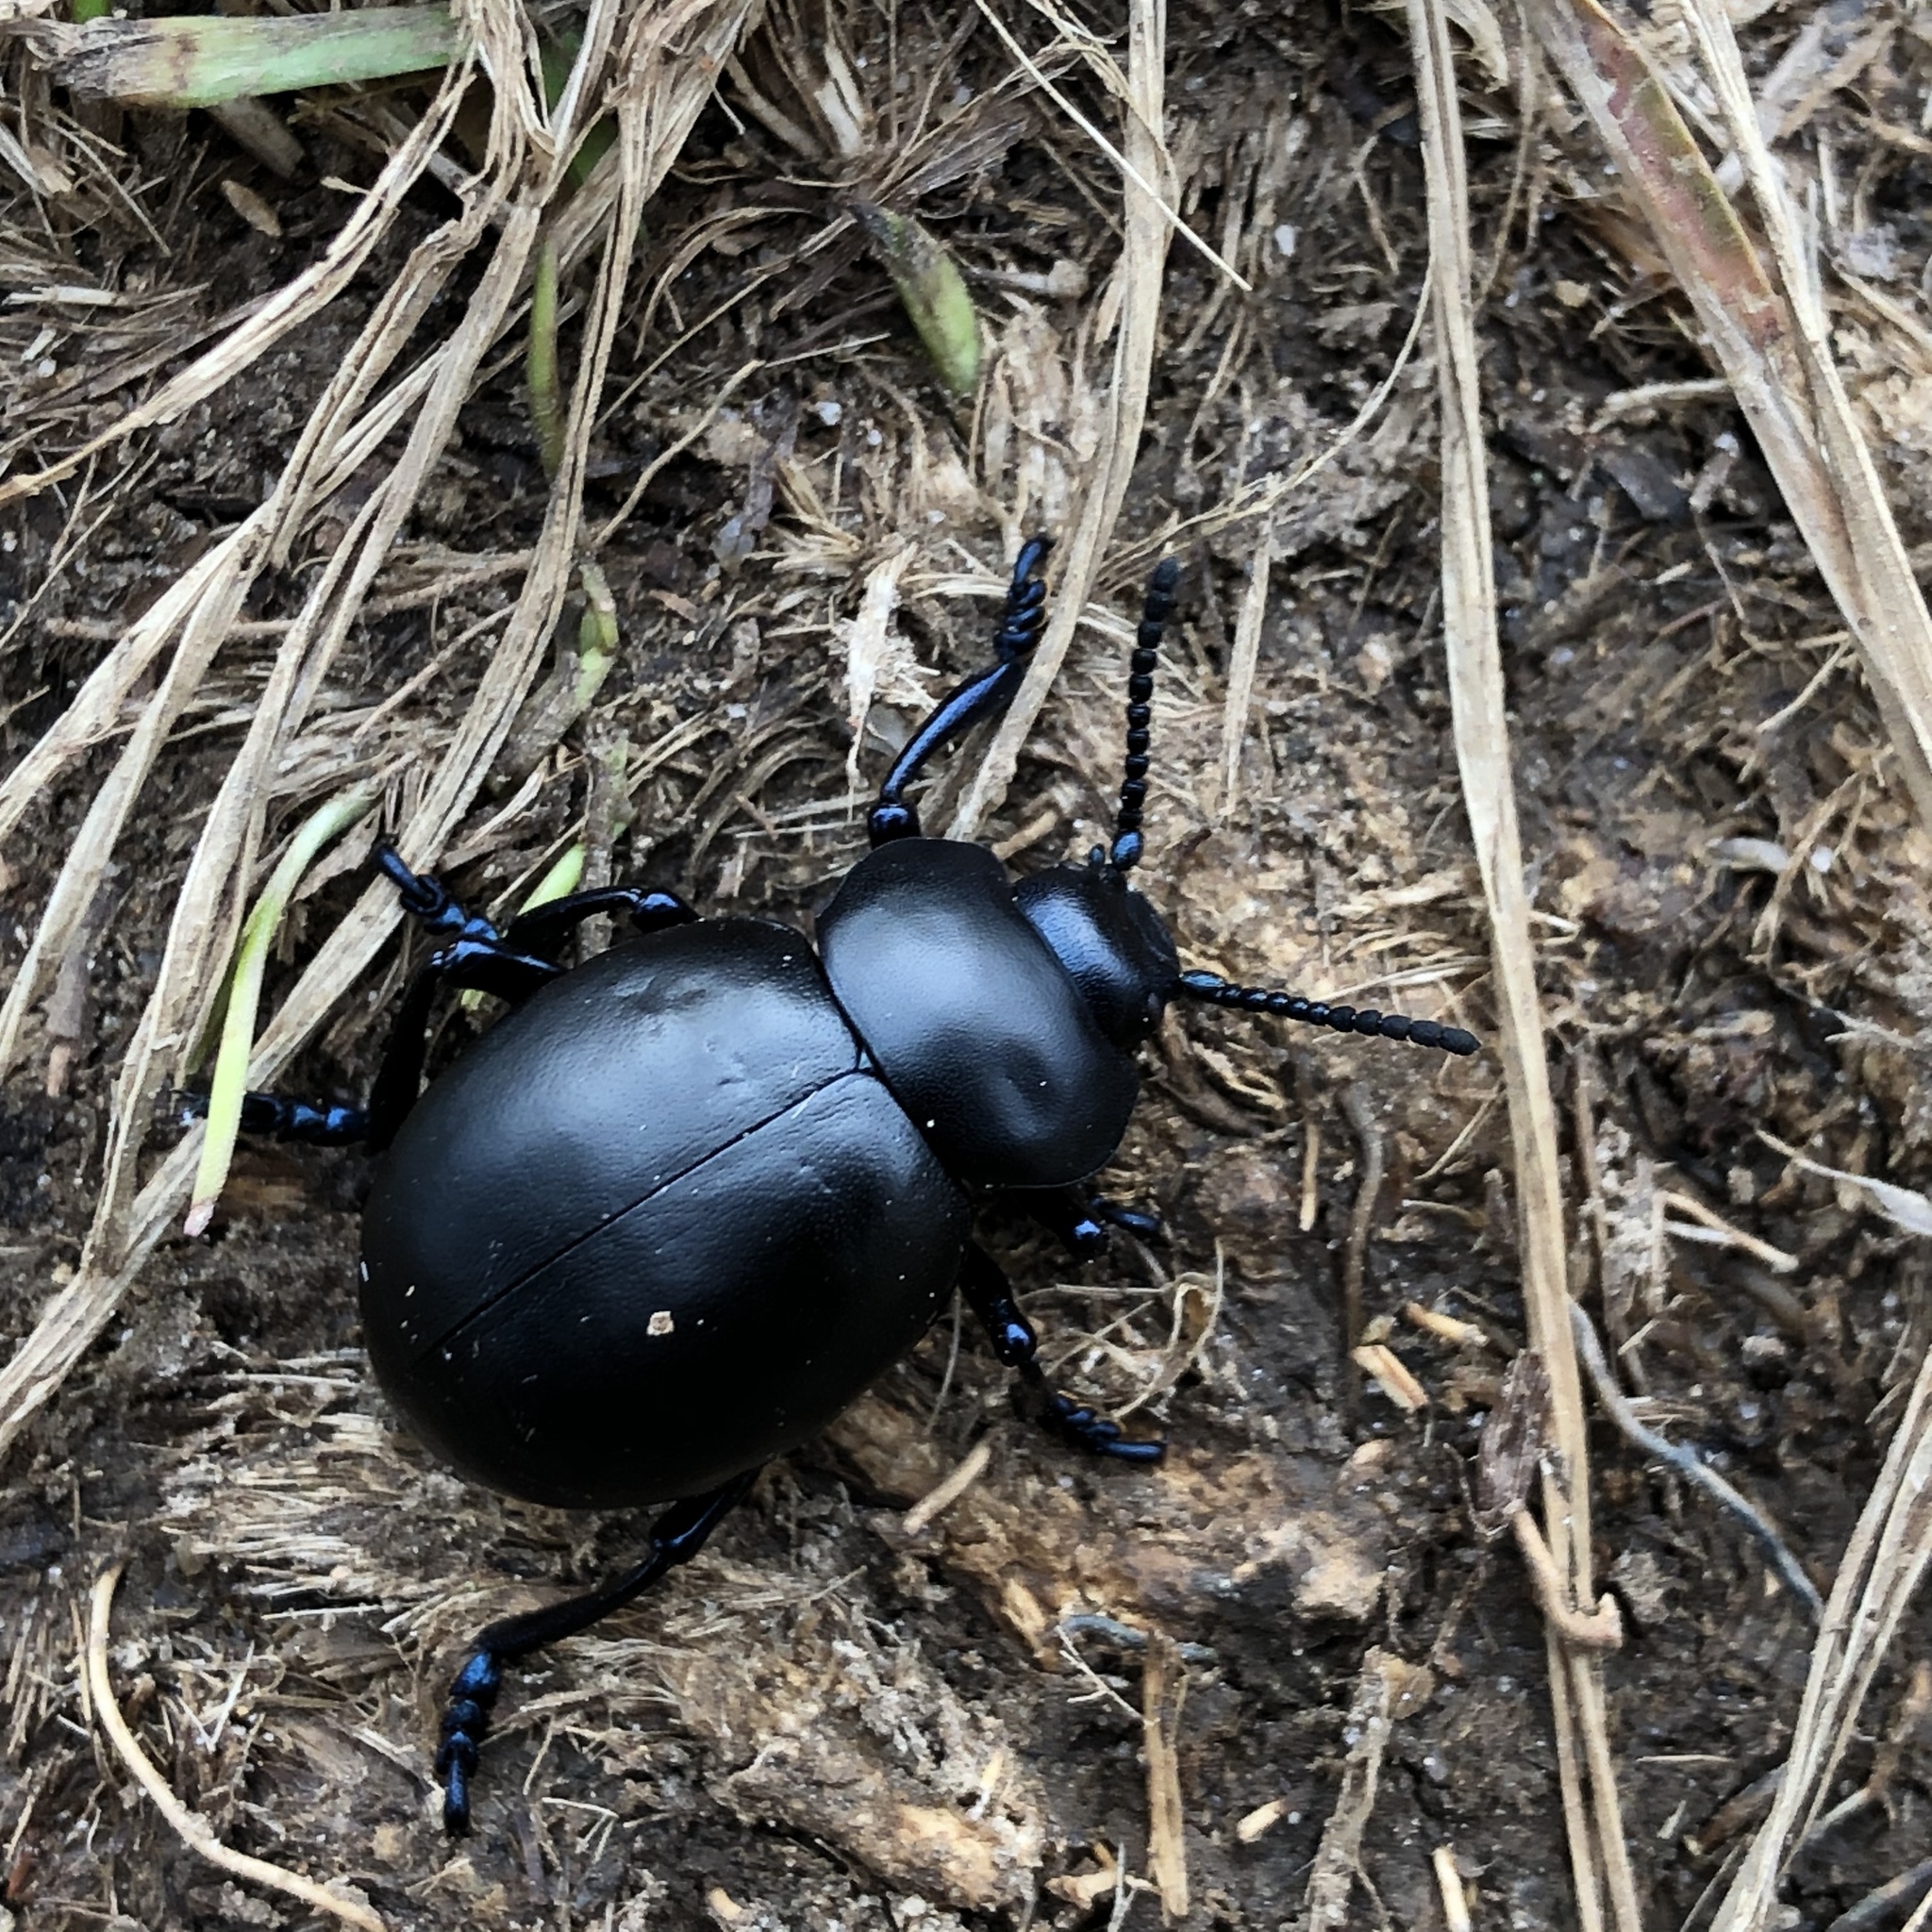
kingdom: Animalia
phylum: Arthropoda
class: Insecta
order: Coleoptera
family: Chrysomelidae
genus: Timarcha
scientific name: Timarcha tenebricosa
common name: Bloody-nosed beetle
